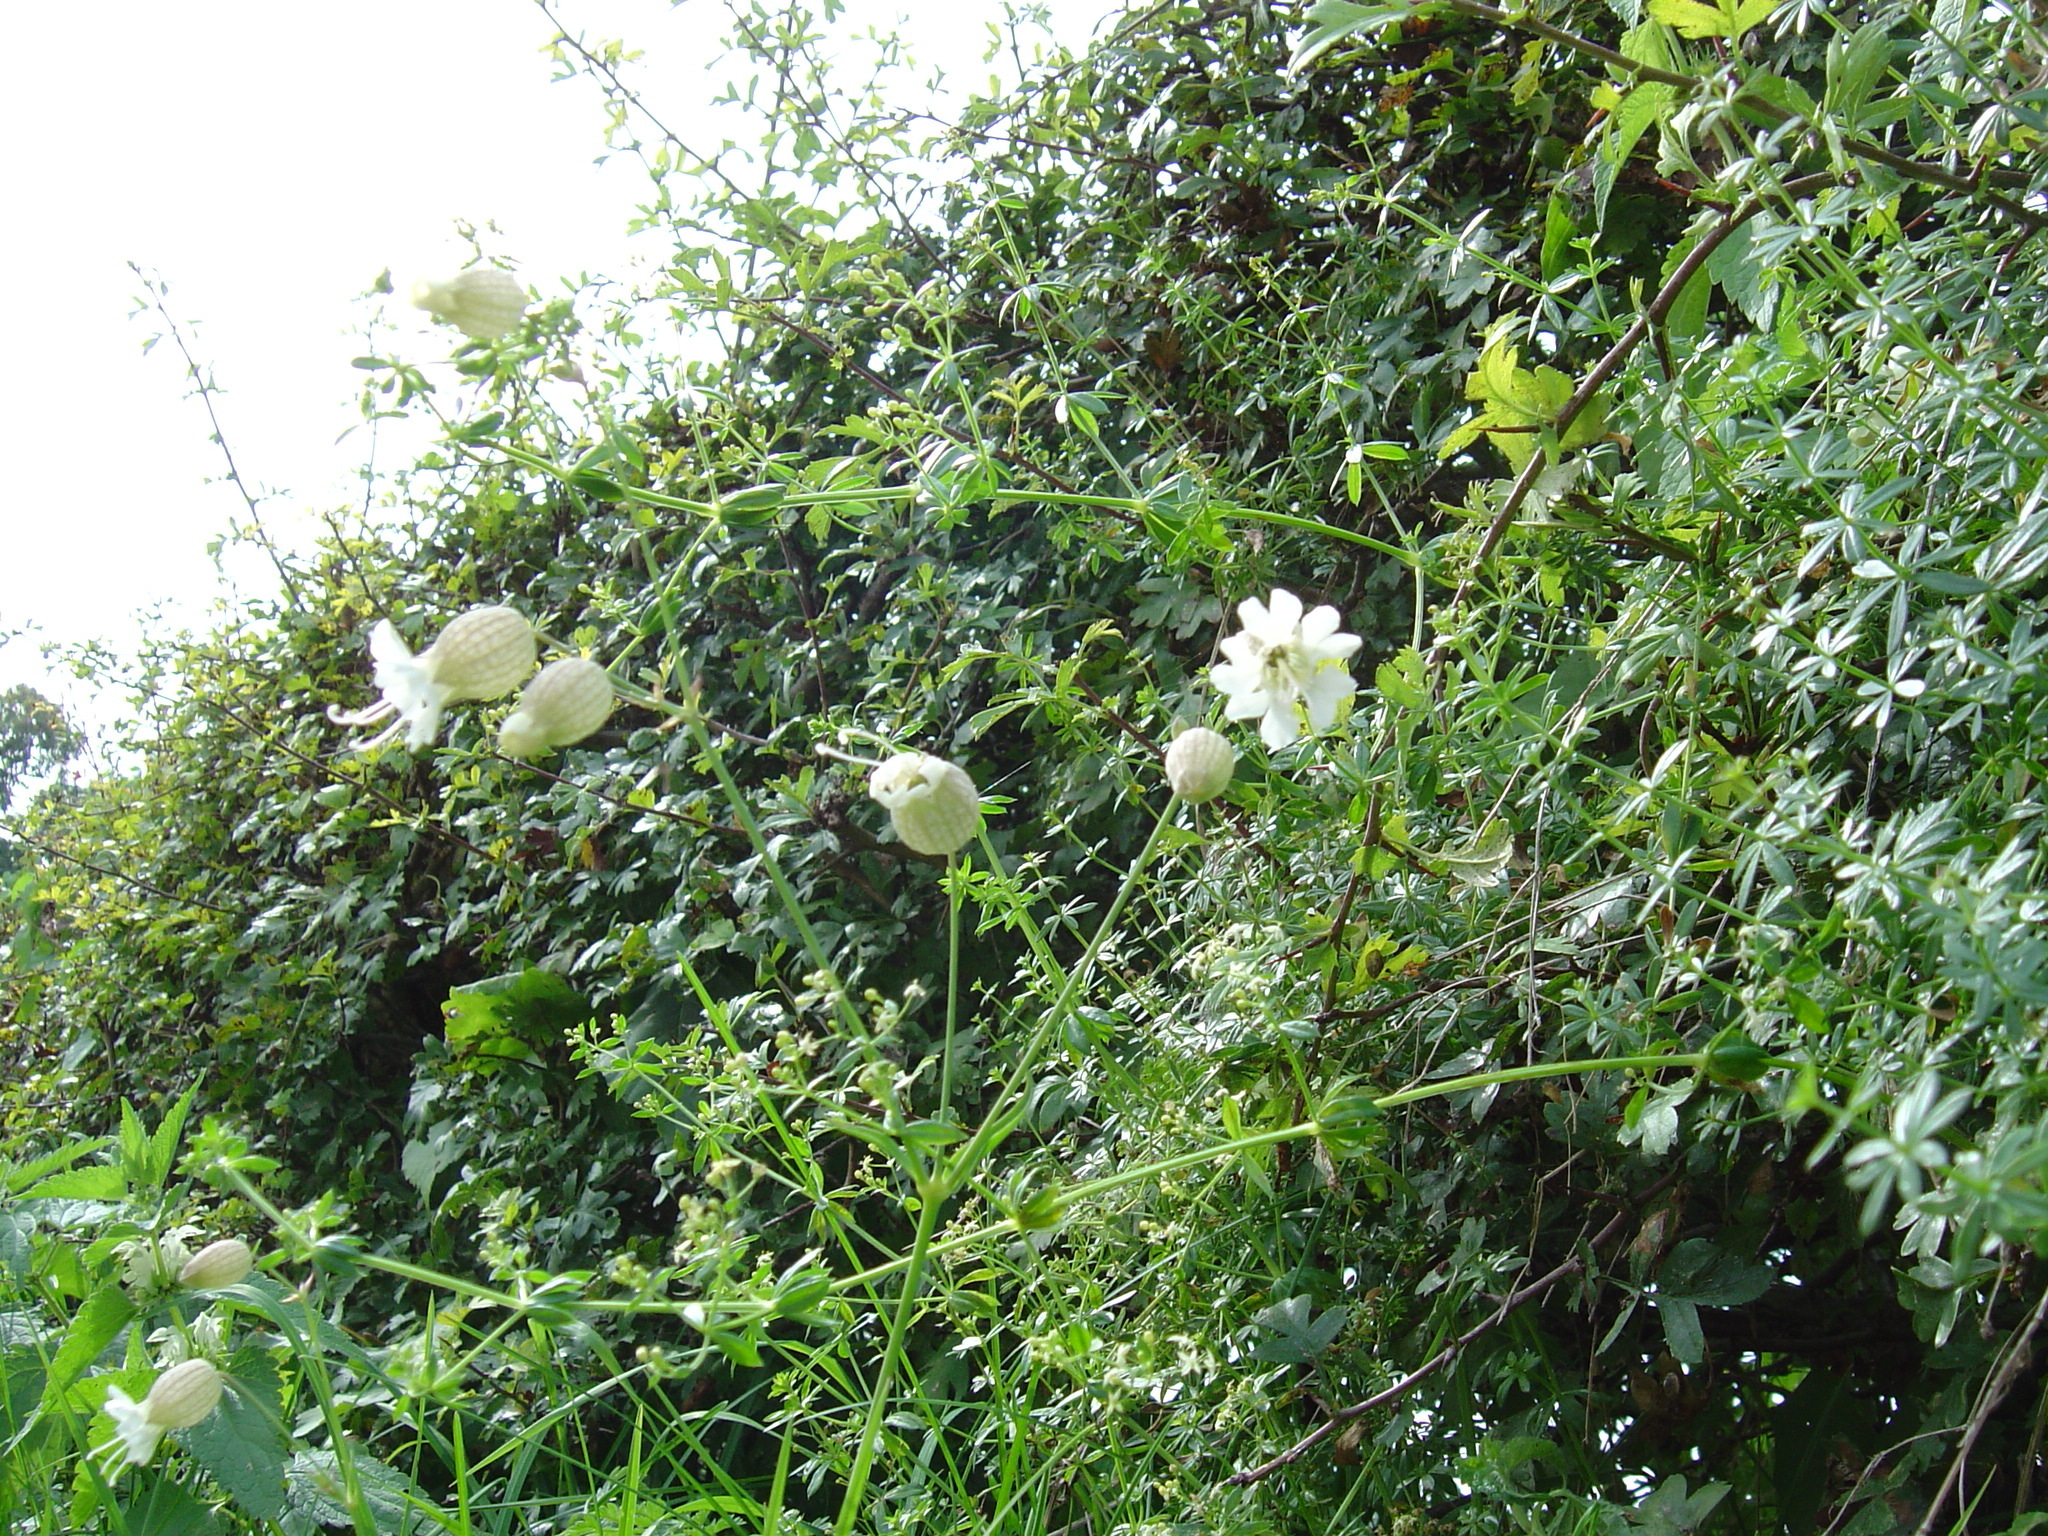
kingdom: Plantae
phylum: Tracheophyta
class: Magnoliopsida
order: Caryophyllales
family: Caryophyllaceae
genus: Silene
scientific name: Silene vulgaris
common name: Bladder campion
